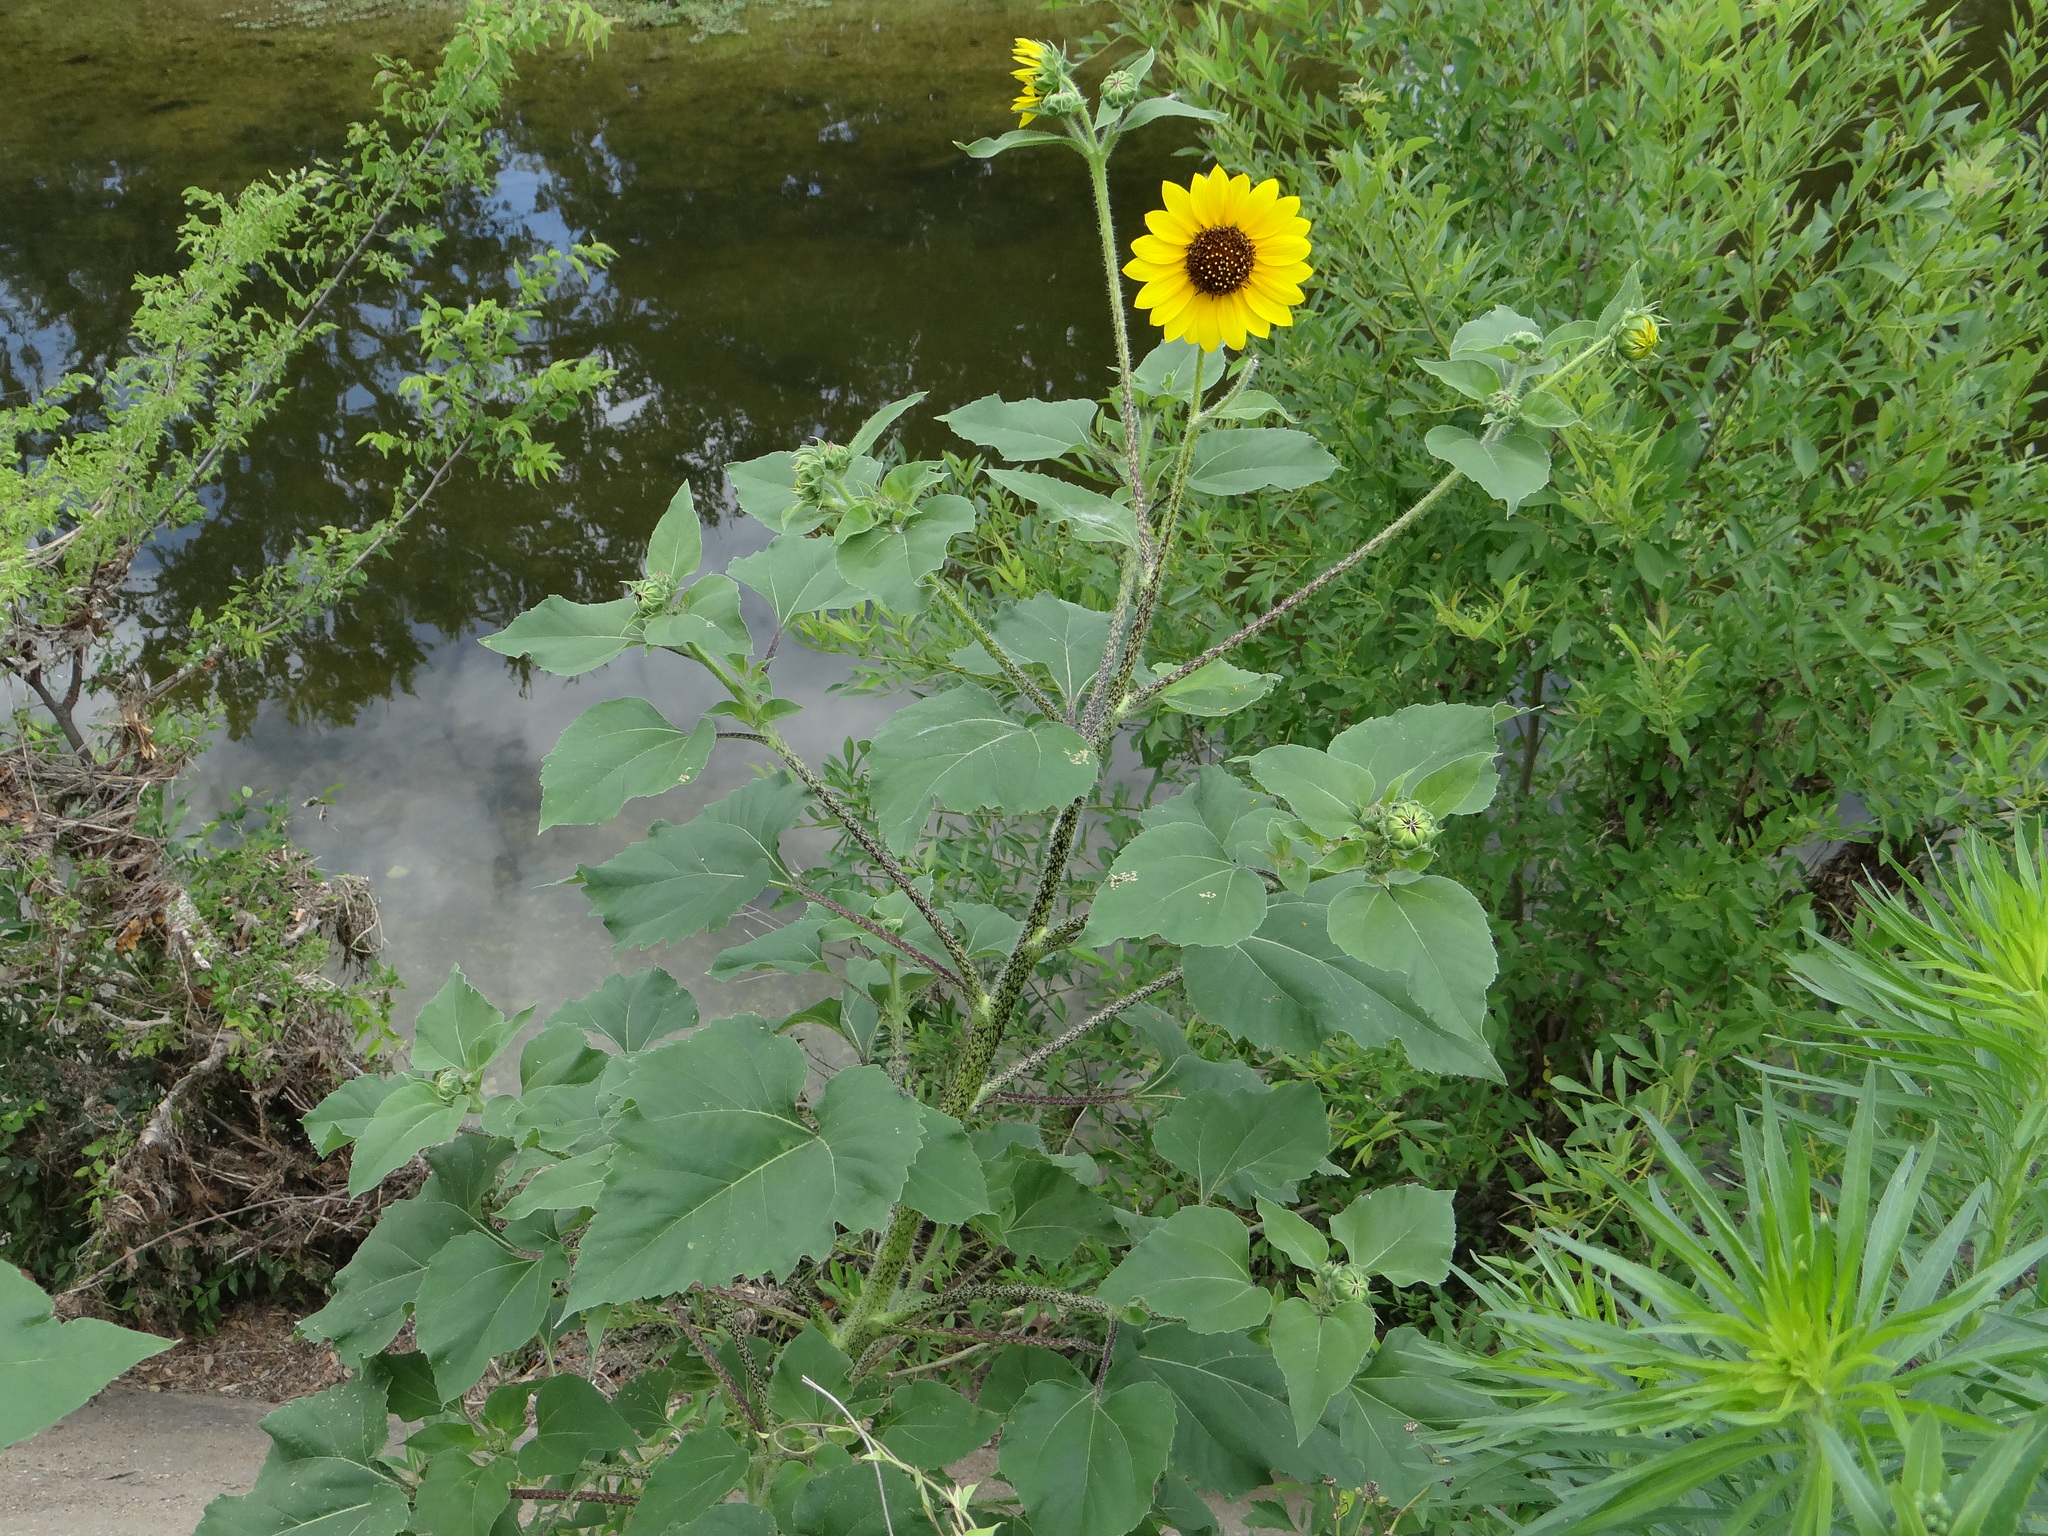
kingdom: Plantae
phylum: Tracheophyta
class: Magnoliopsida
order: Asterales
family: Asteraceae
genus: Helianthus
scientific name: Helianthus annuus
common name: Sunflower
